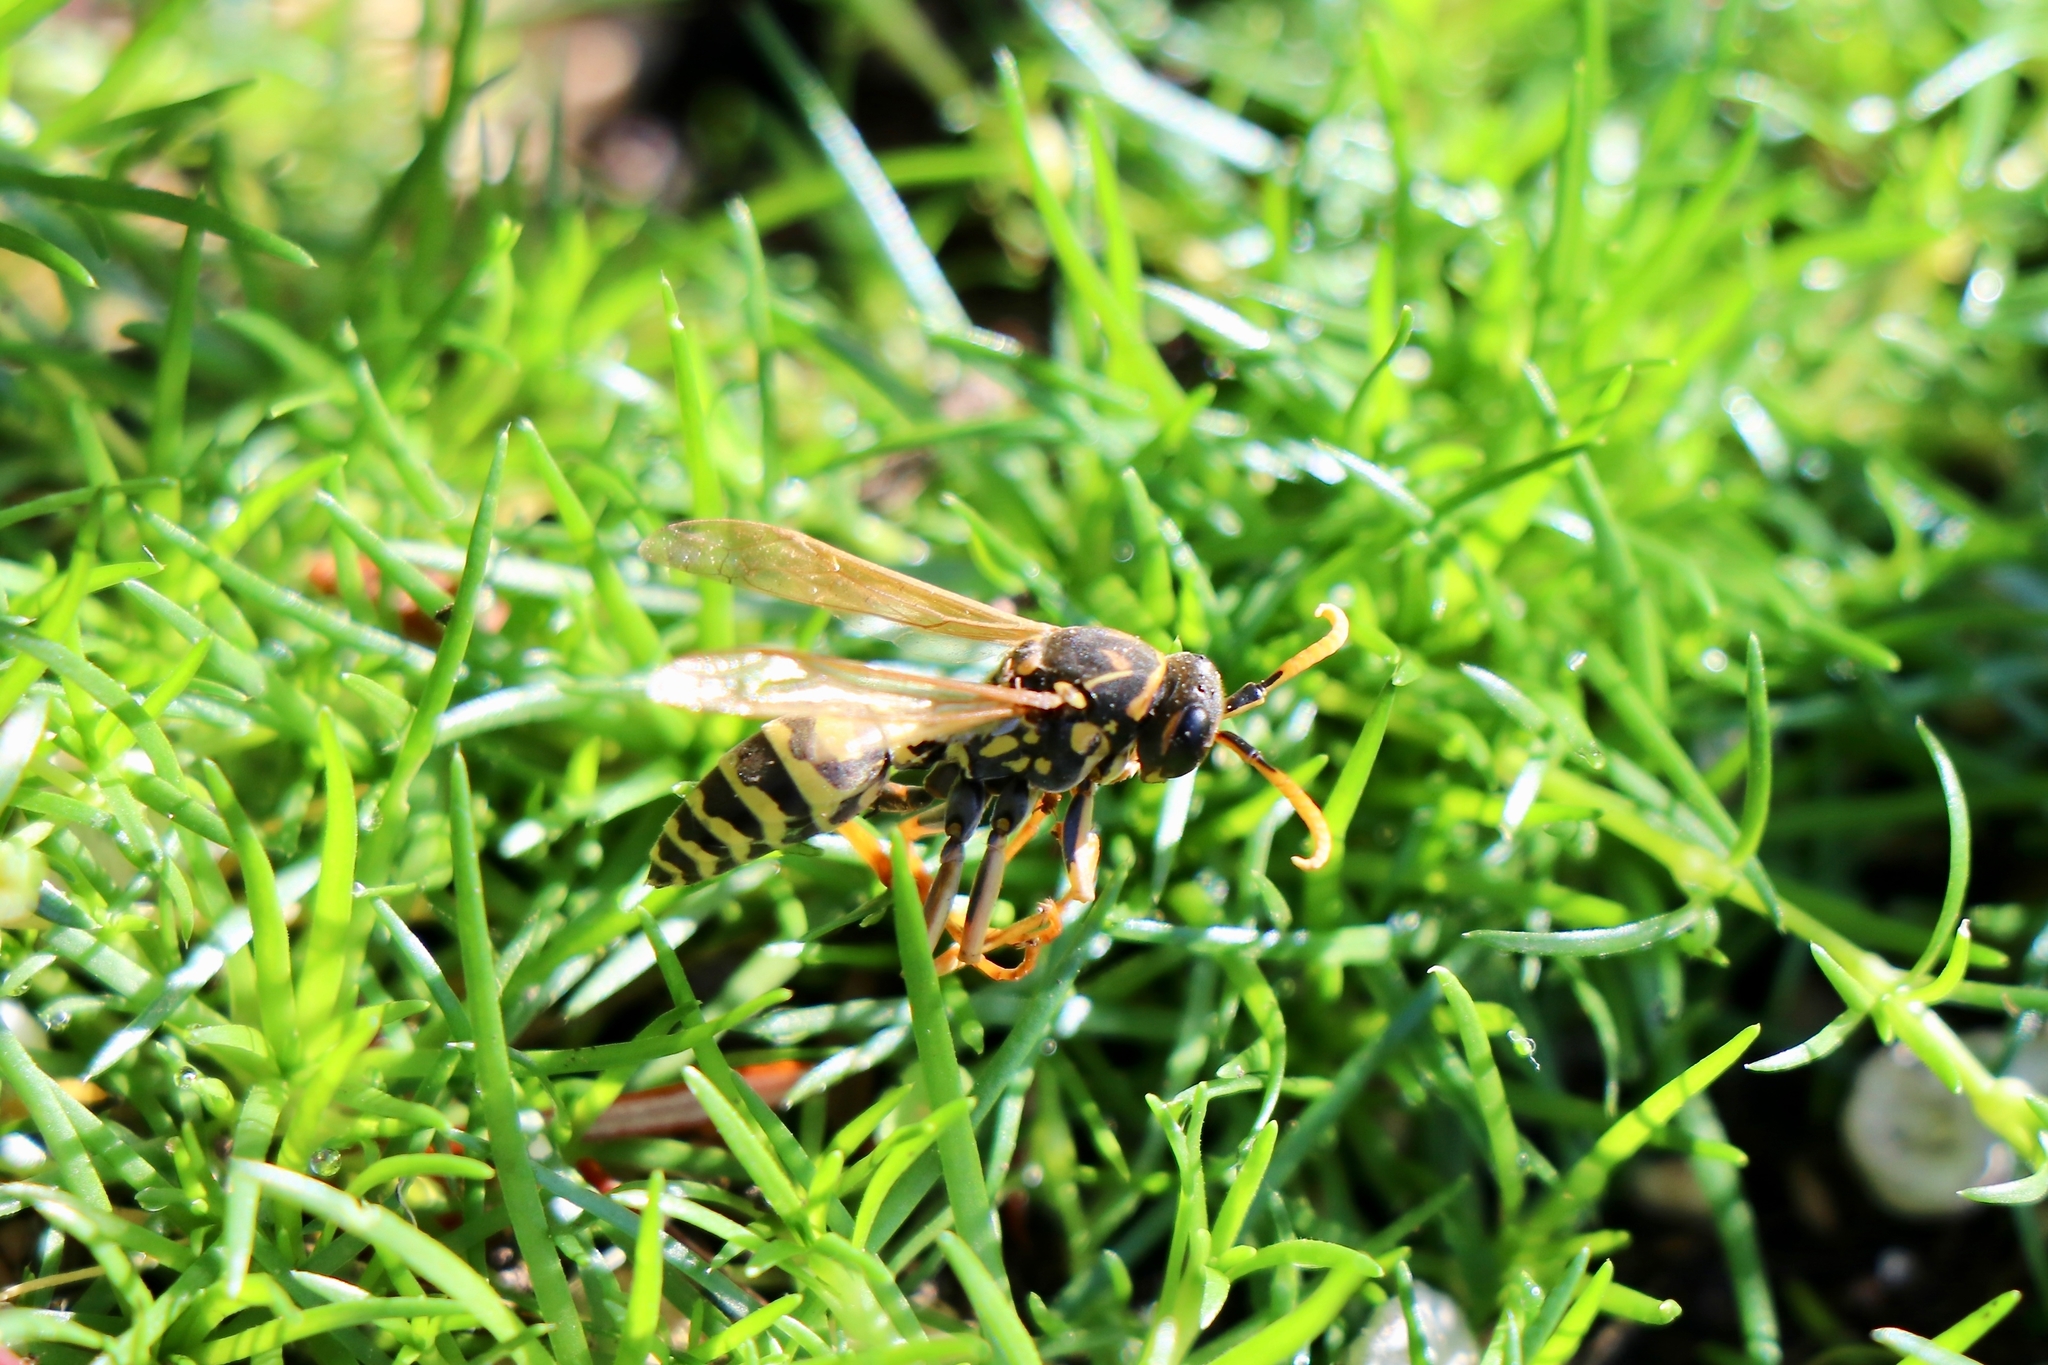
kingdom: Animalia
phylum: Arthropoda
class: Insecta
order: Hymenoptera
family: Eumenidae
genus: Polistes
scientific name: Polistes dominula
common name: Paper wasp
